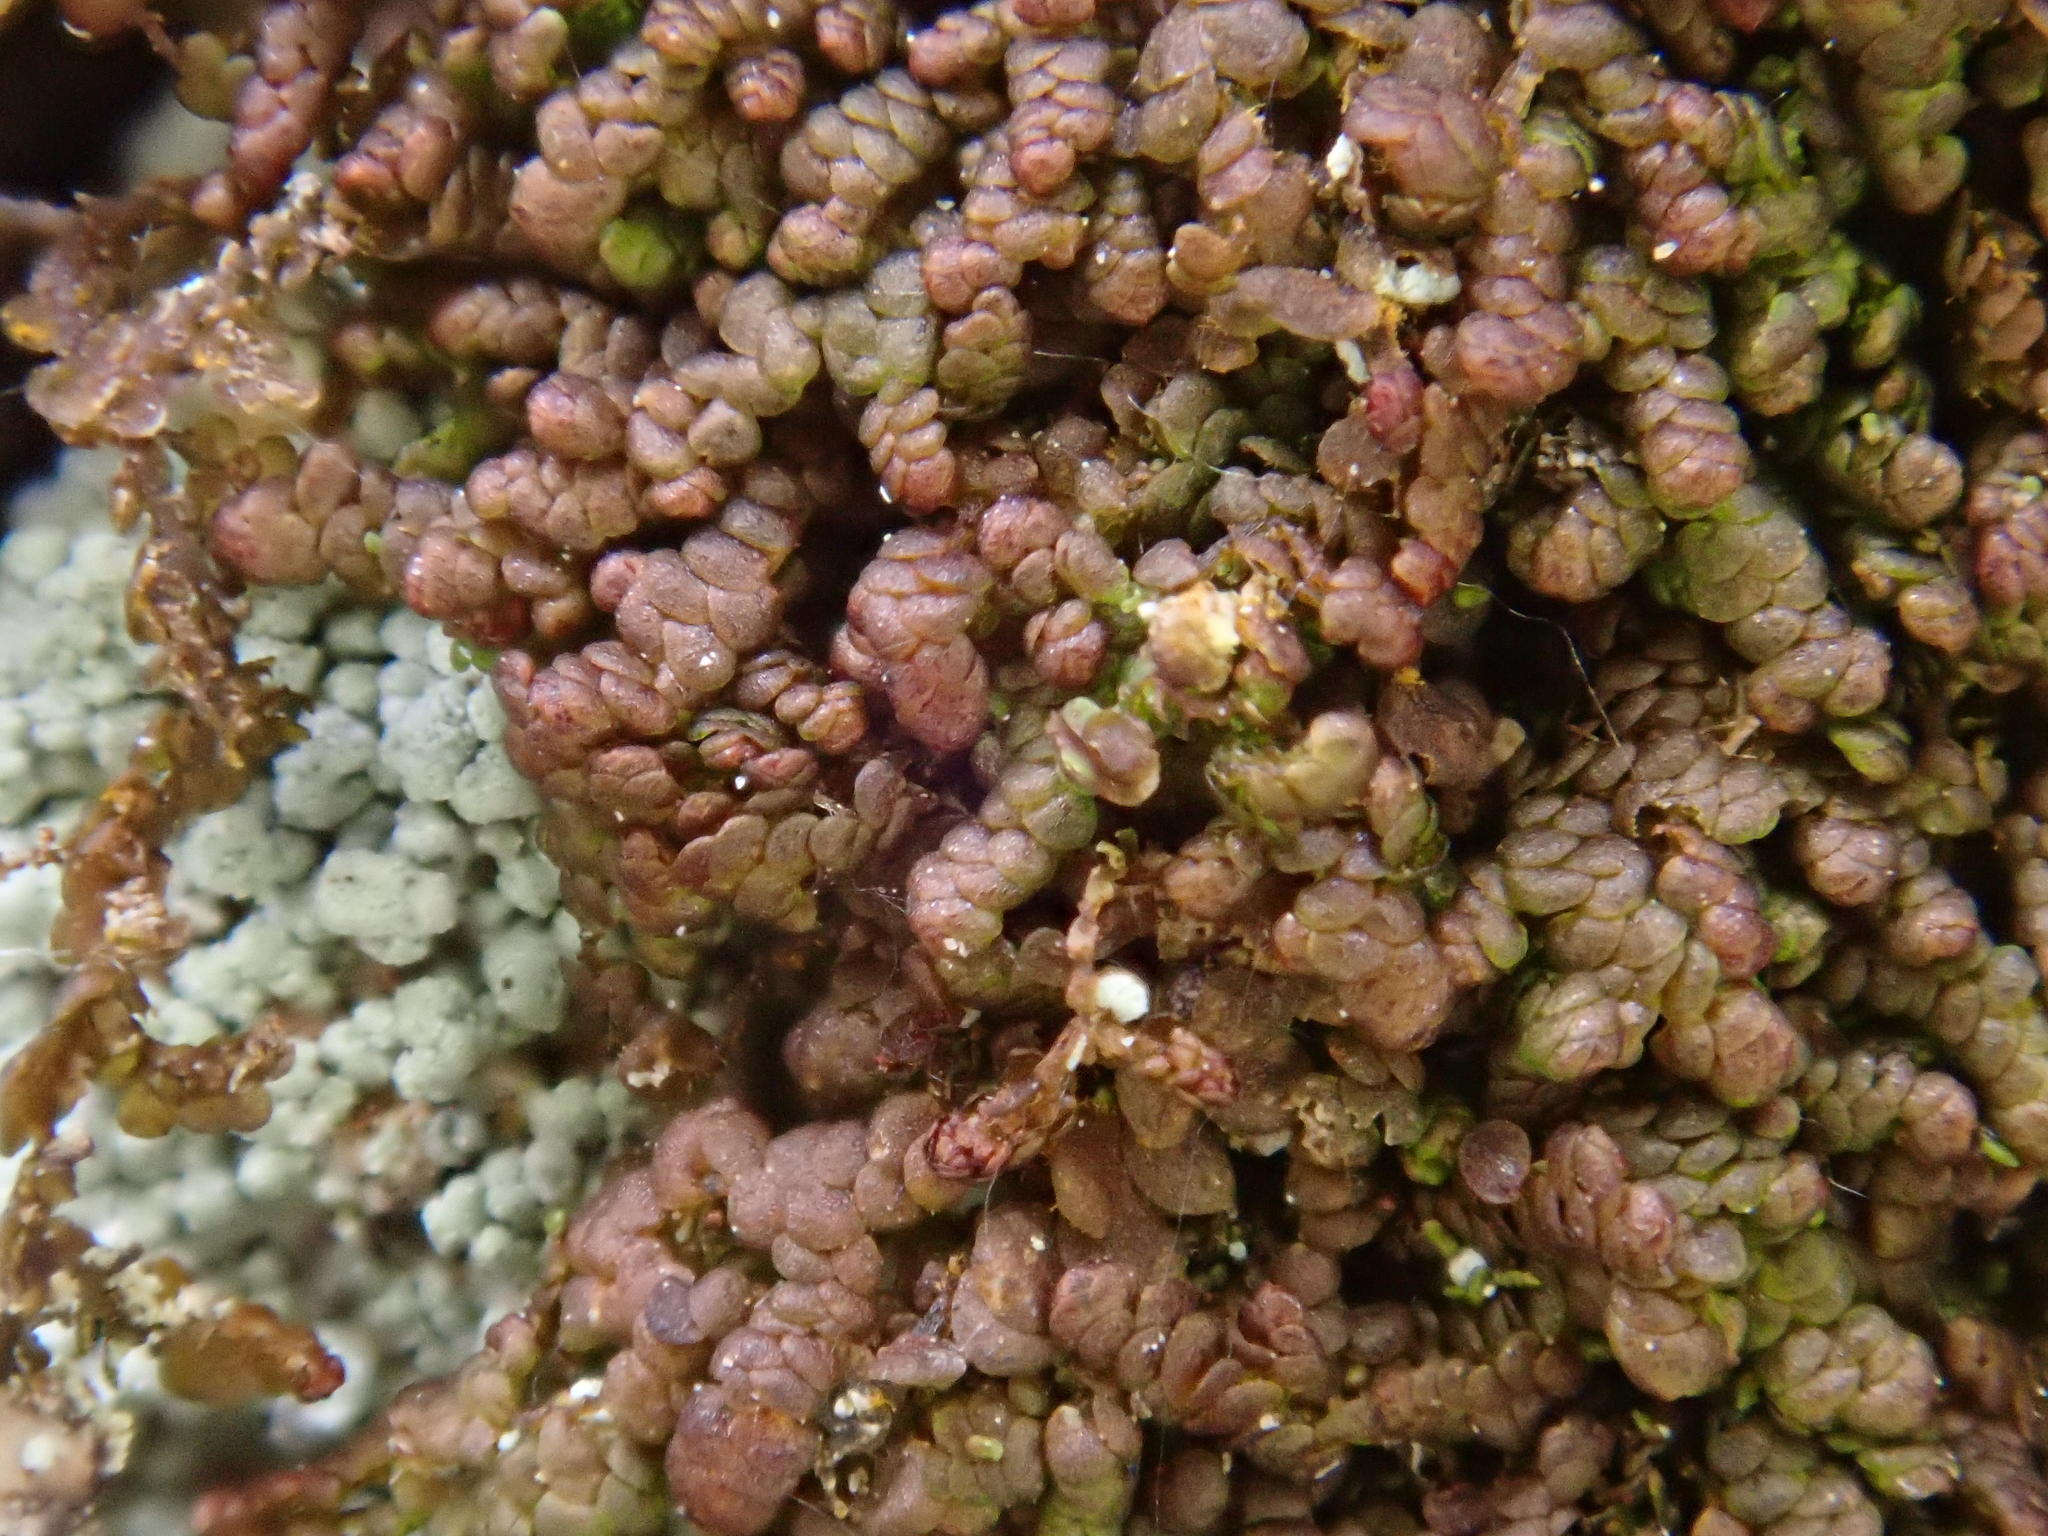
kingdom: Plantae
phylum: Marchantiophyta
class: Jungermanniopsida
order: Porellales
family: Frullaniaceae
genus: Frullania
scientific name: Frullania fragilifolia
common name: Spotty scalewort
